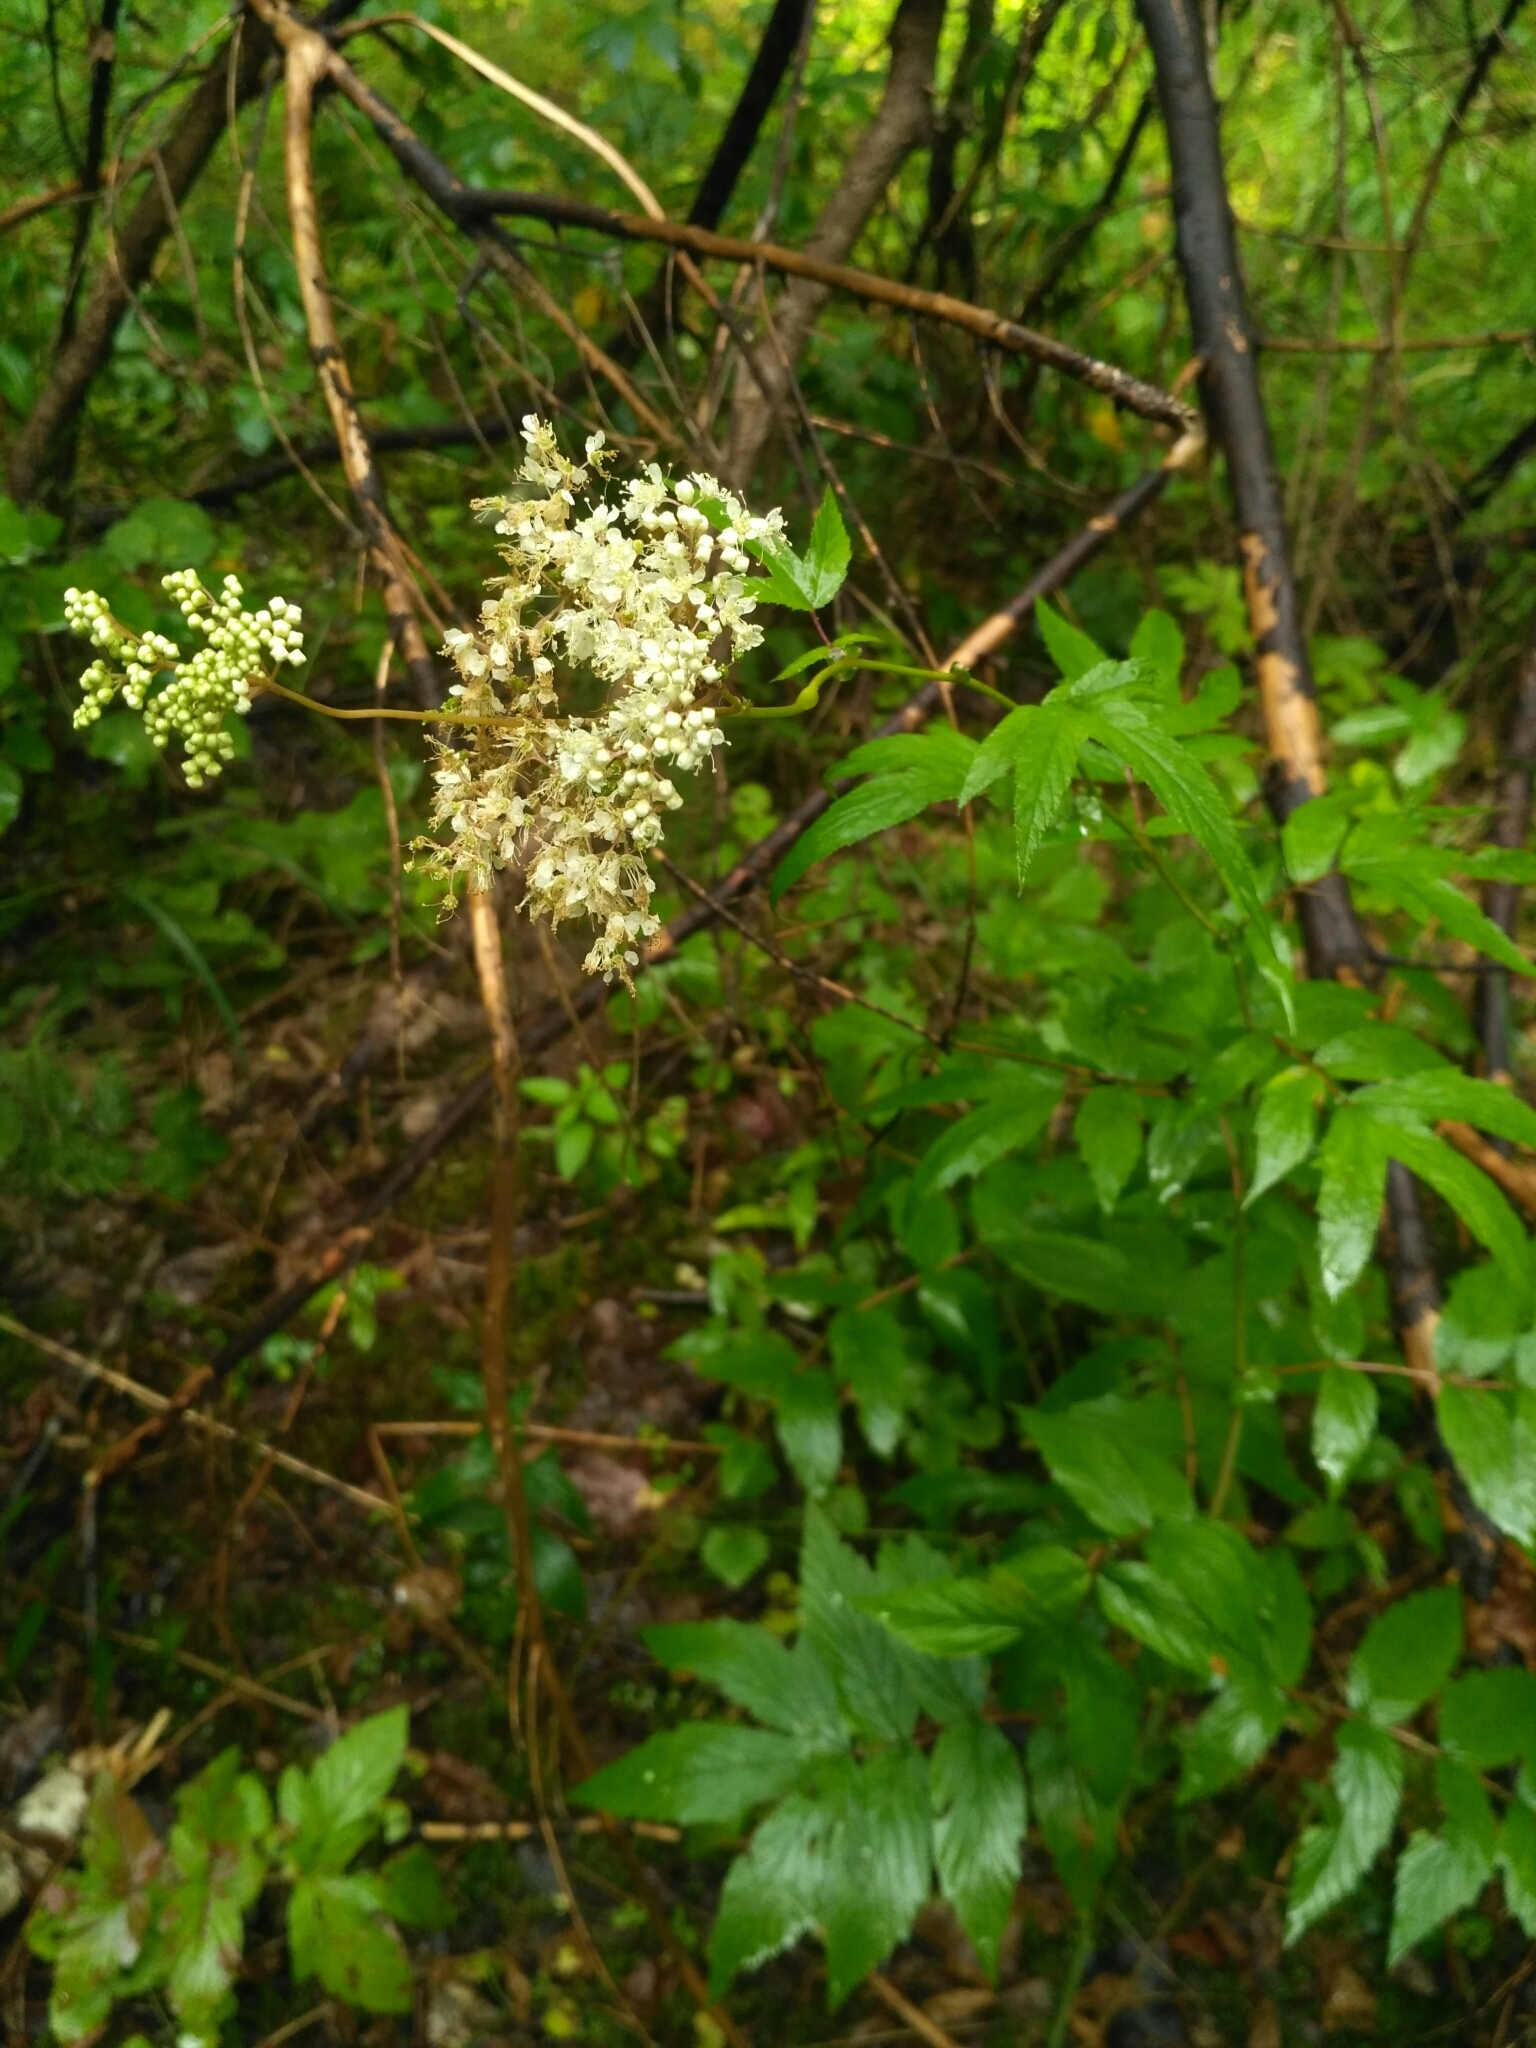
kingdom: Plantae
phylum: Tracheophyta
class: Magnoliopsida
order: Rosales
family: Rosaceae
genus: Filipendula
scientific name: Filipendula ulmaria
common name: Meadowsweet
